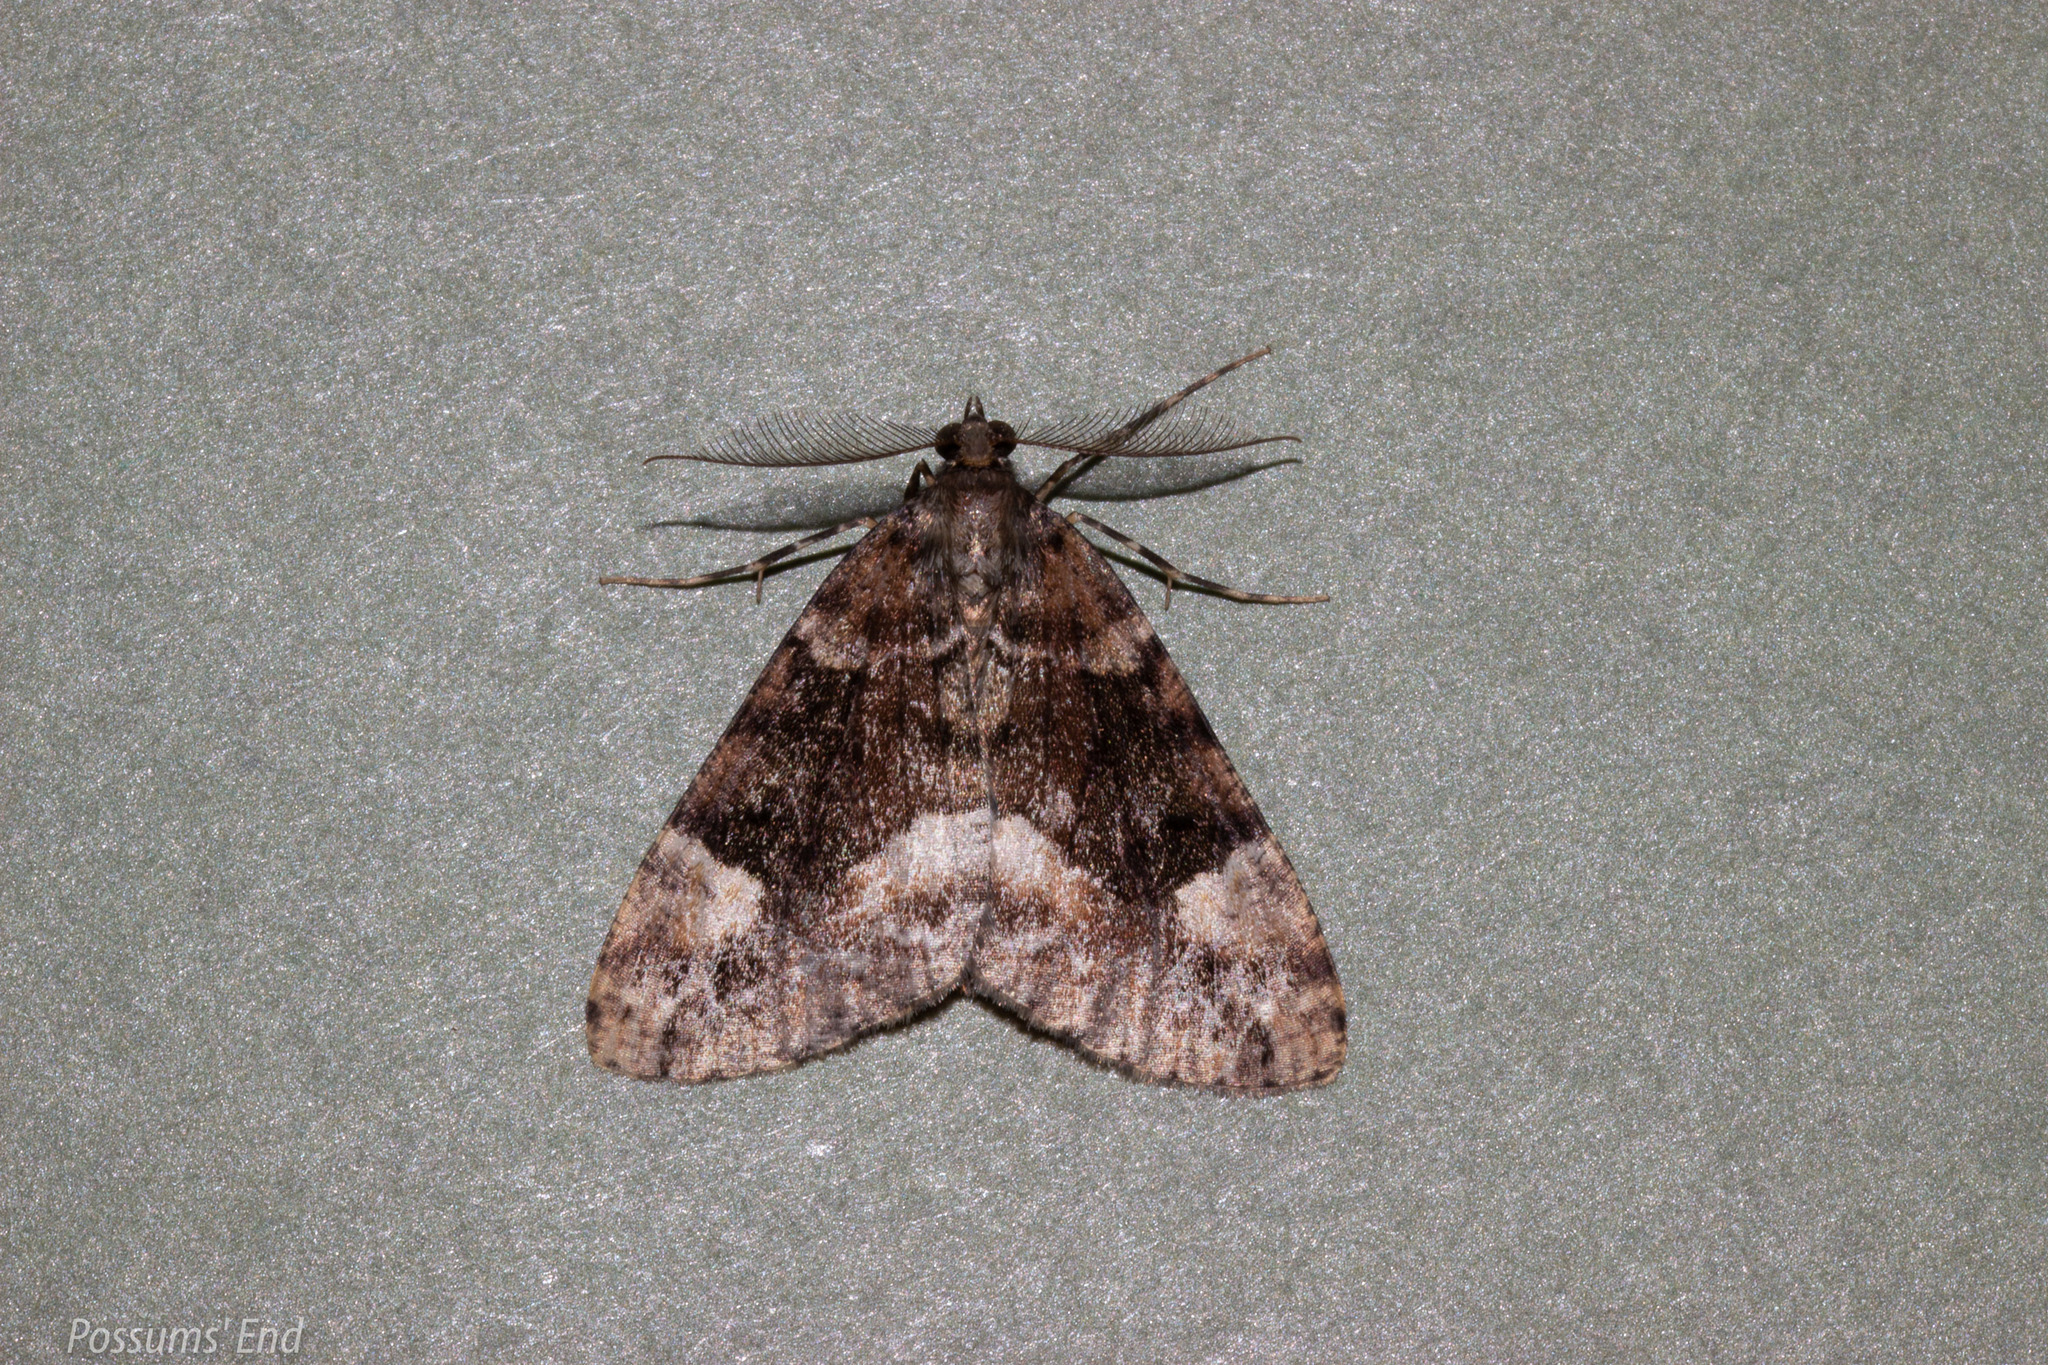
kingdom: Animalia
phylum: Arthropoda
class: Insecta
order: Lepidoptera
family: Geometridae
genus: Pseudocoremia
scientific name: Pseudocoremia productata
